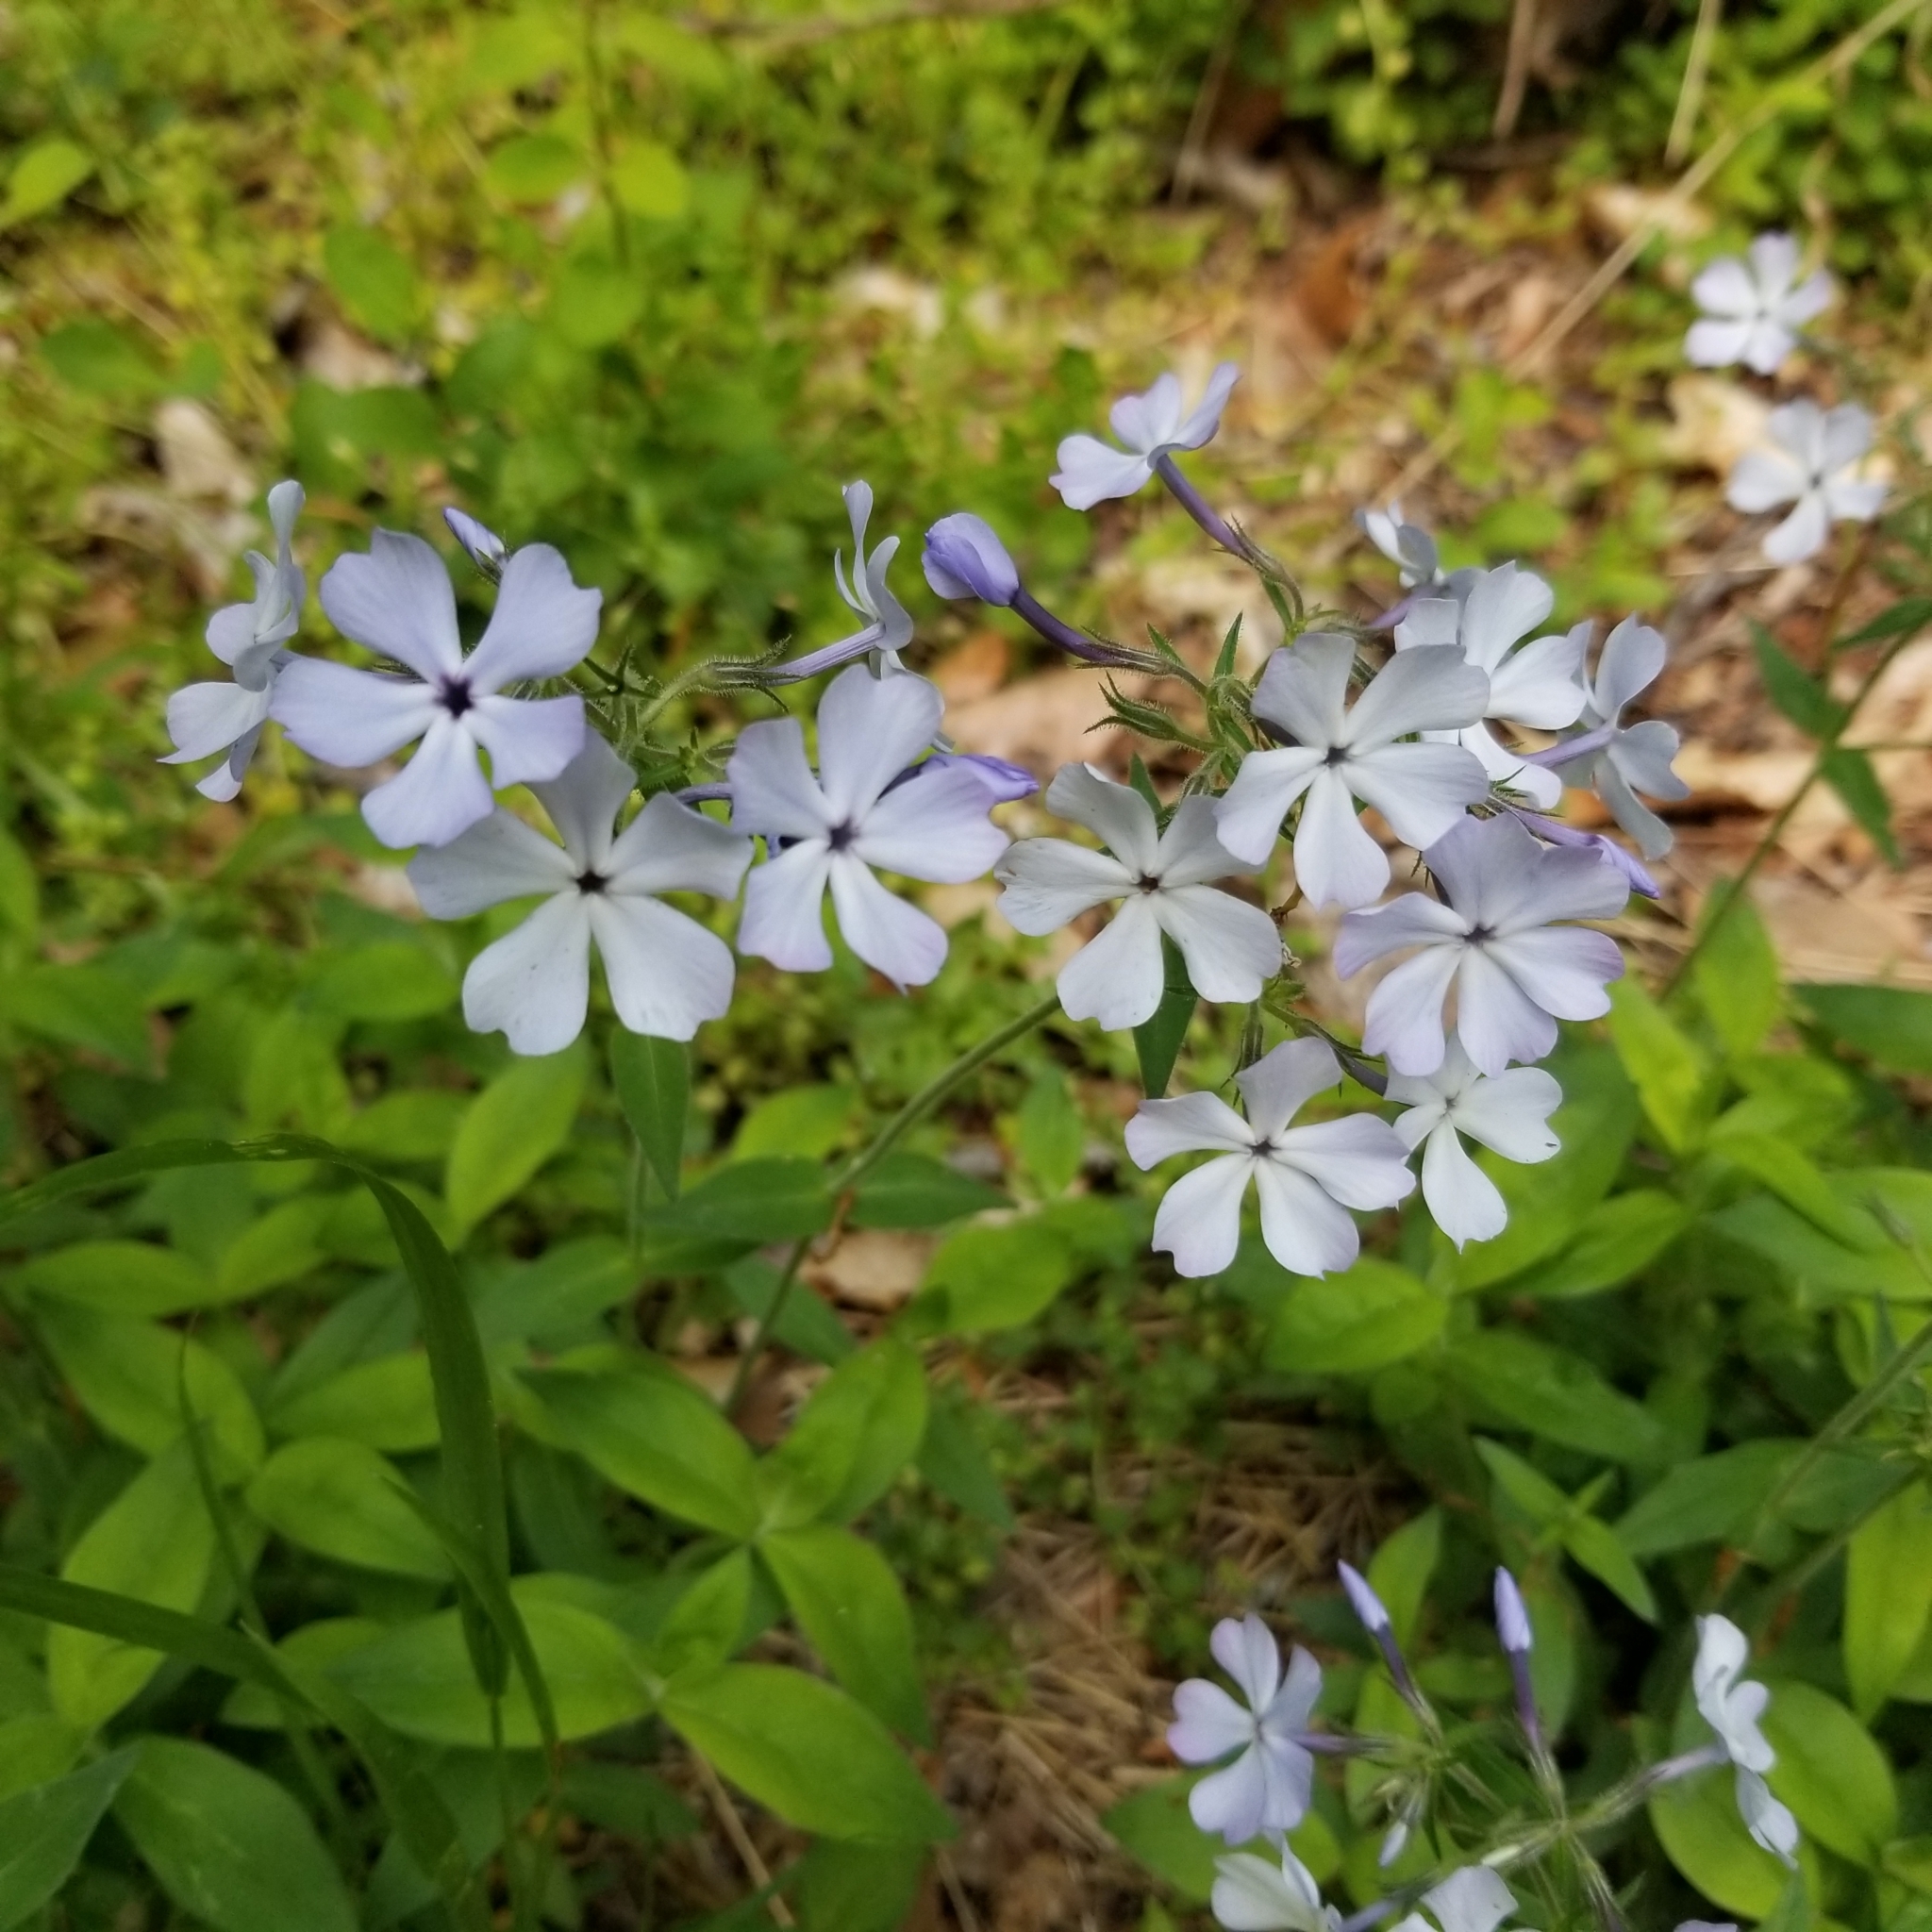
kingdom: Plantae
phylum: Tracheophyta
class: Magnoliopsida
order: Ericales
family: Polemoniaceae
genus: Phlox
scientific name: Phlox divaricata
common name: Blue phlox
